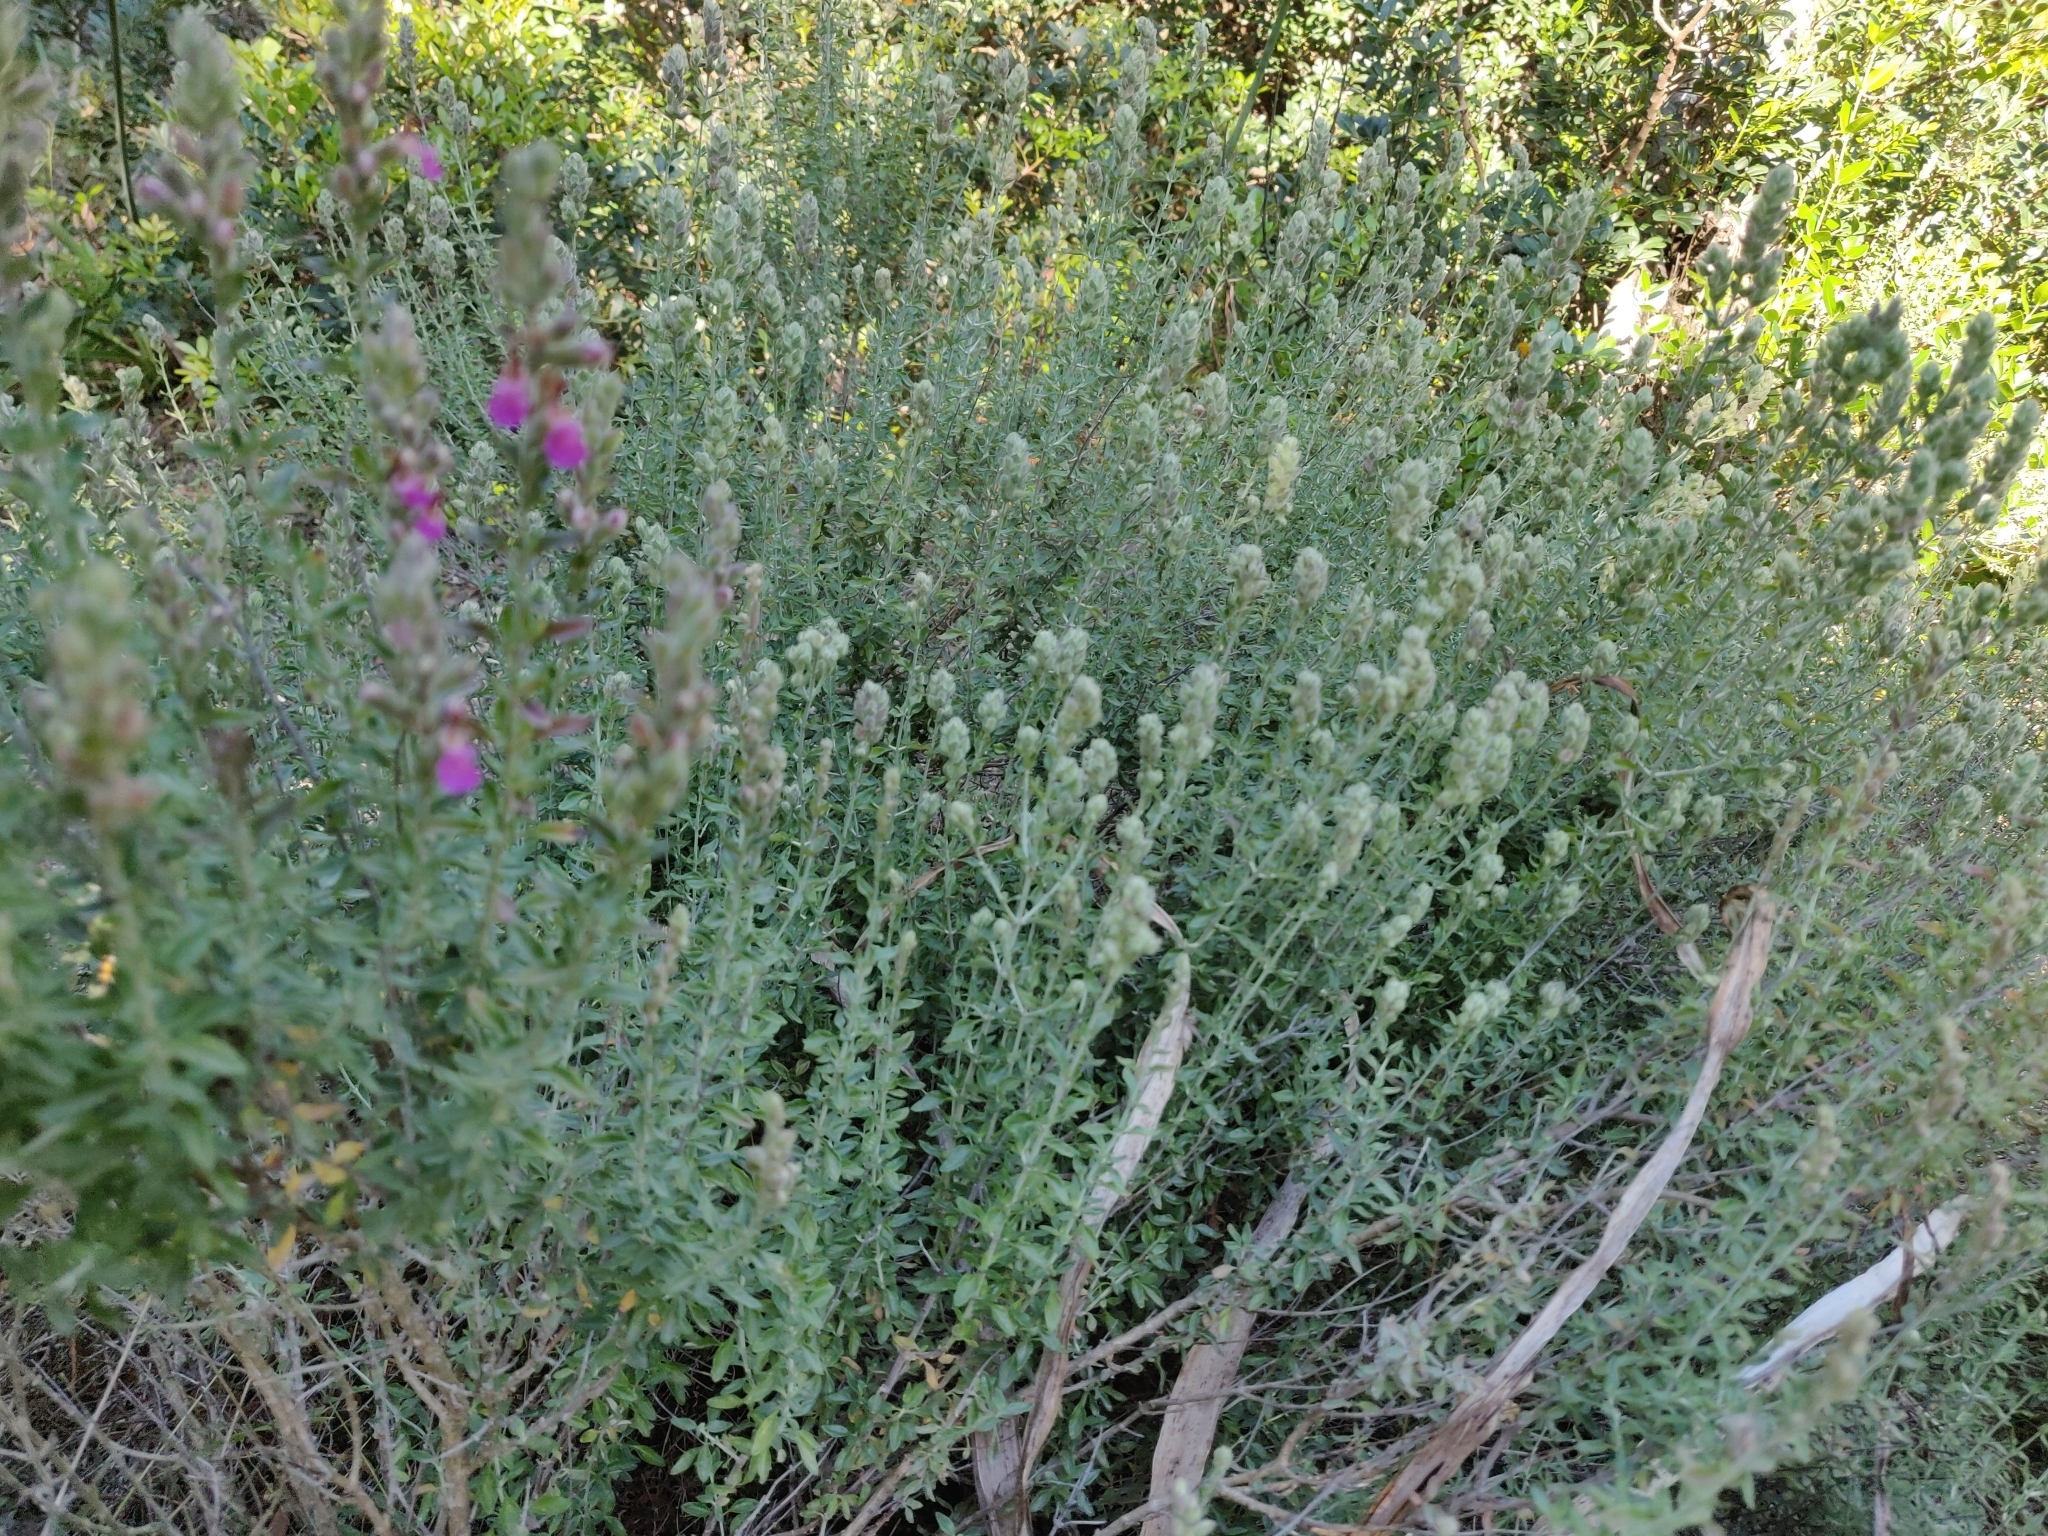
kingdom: Plantae
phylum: Tracheophyta
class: Magnoliopsida
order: Lamiales
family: Lamiaceae
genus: Teucrium
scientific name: Teucrium marum
